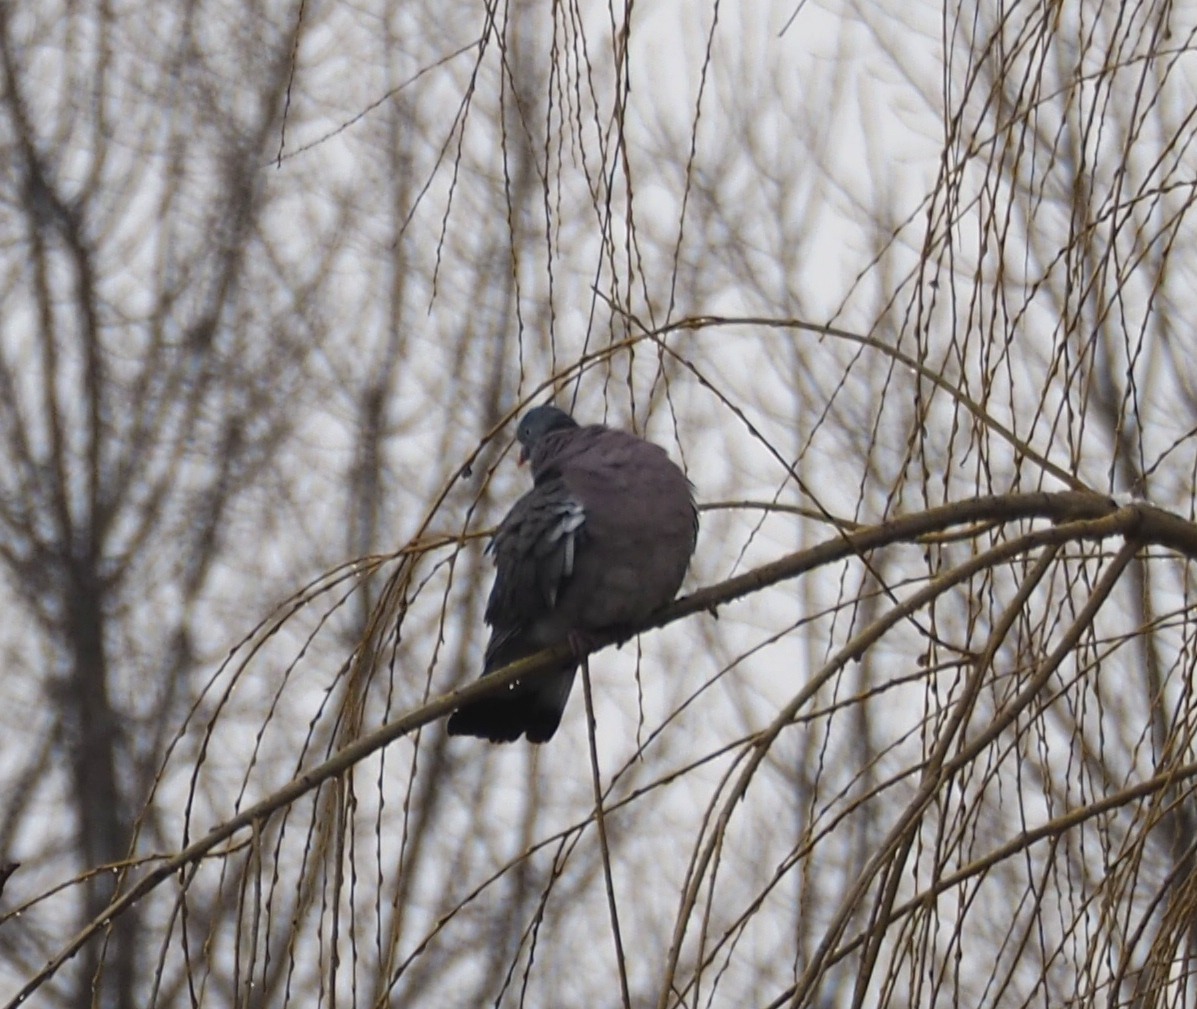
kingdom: Animalia
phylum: Chordata
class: Aves
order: Columbiformes
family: Columbidae
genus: Columba
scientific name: Columba palumbus
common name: Common wood pigeon
